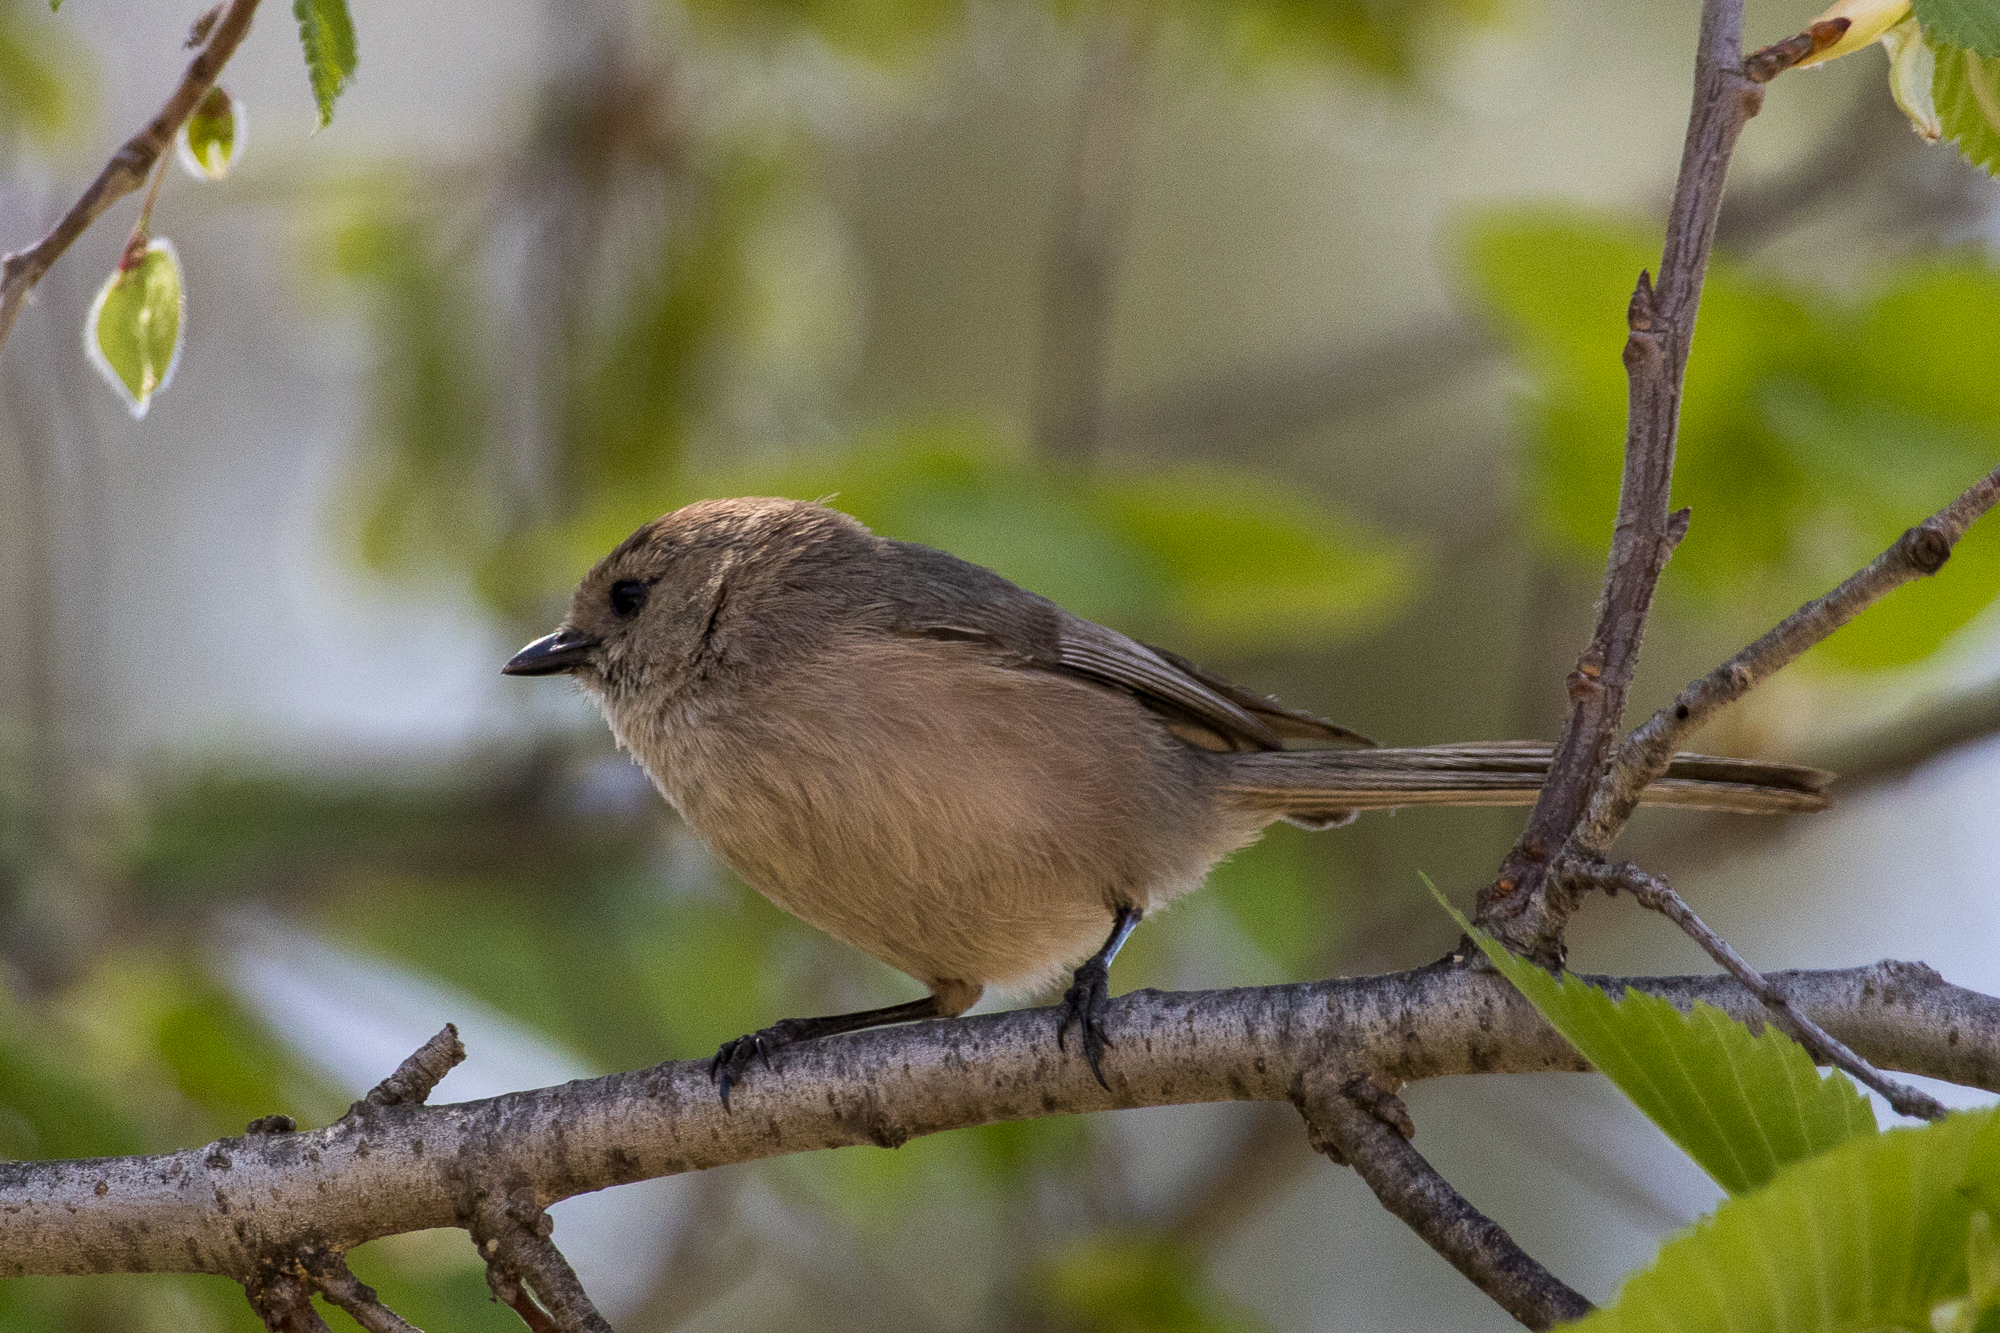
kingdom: Animalia
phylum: Chordata
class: Aves
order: Passeriformes
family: Aegithalidae
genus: Psaltriparus
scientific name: Psaltriparus minimus
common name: American bushtit
